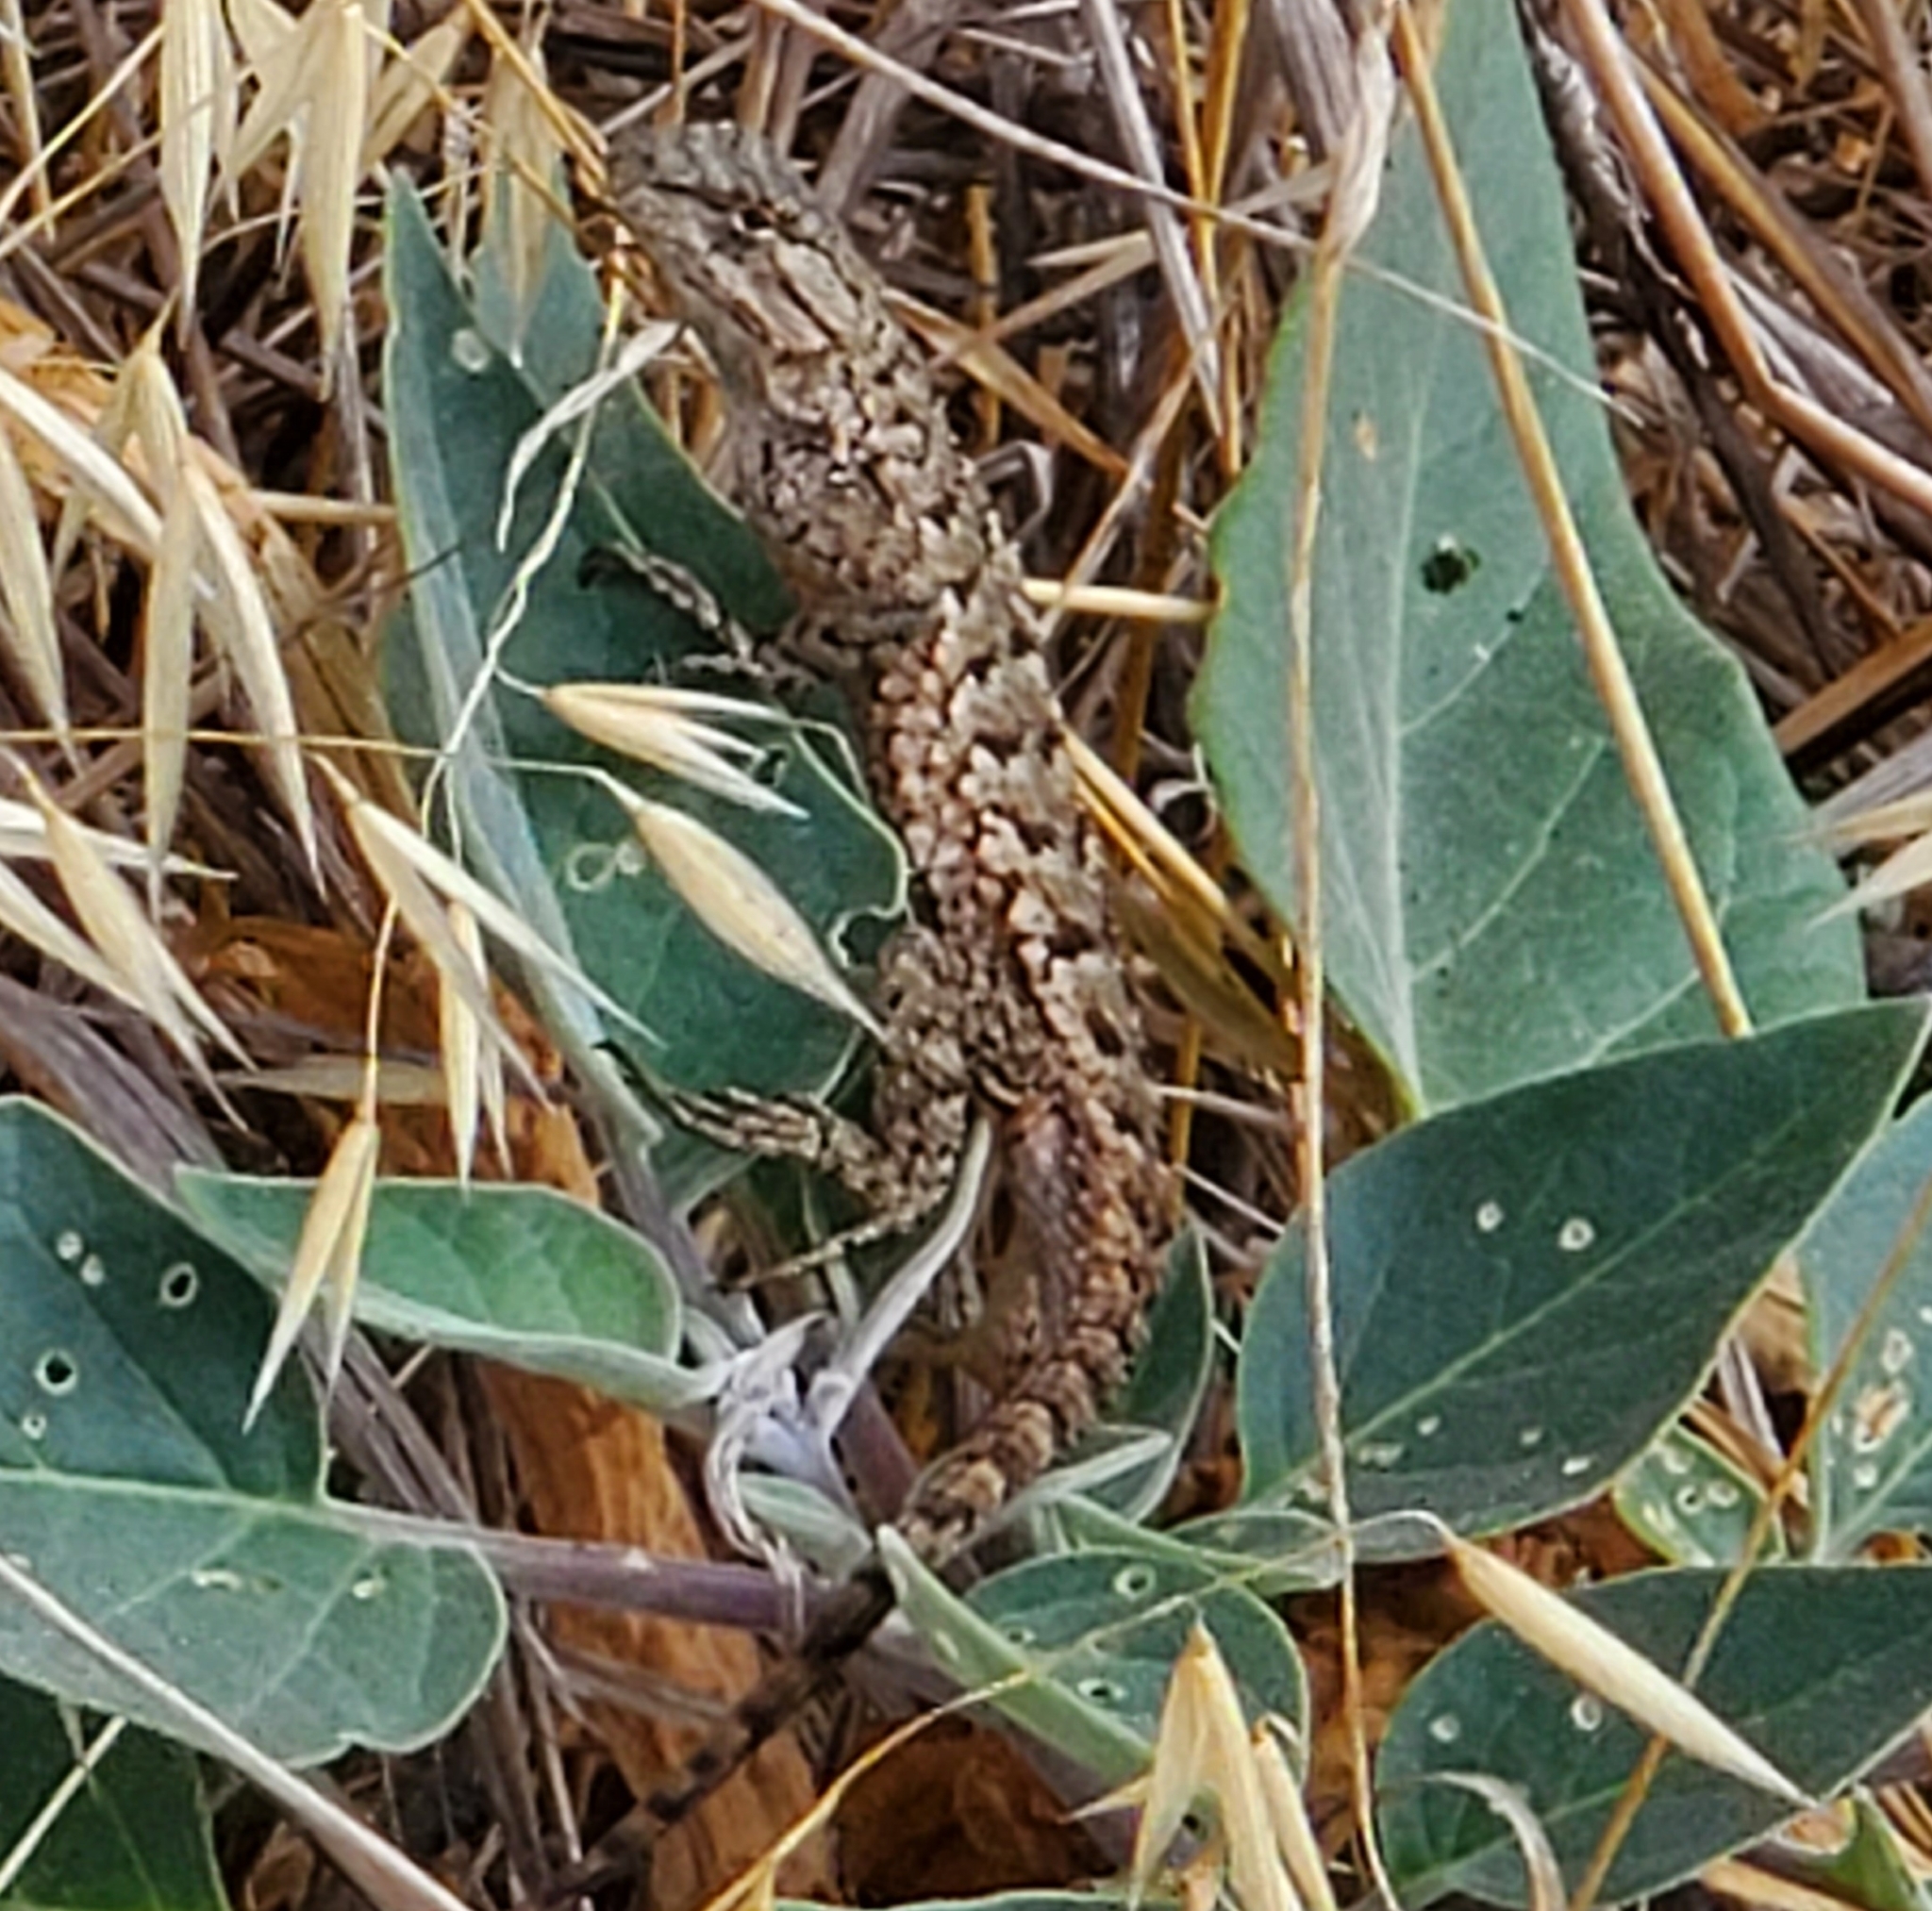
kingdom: Animalia
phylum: Chordata
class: Squamata
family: Phrynosomatidae
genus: Sceloporus
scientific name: Sceloporus occidentalis
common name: Western fence lizard
